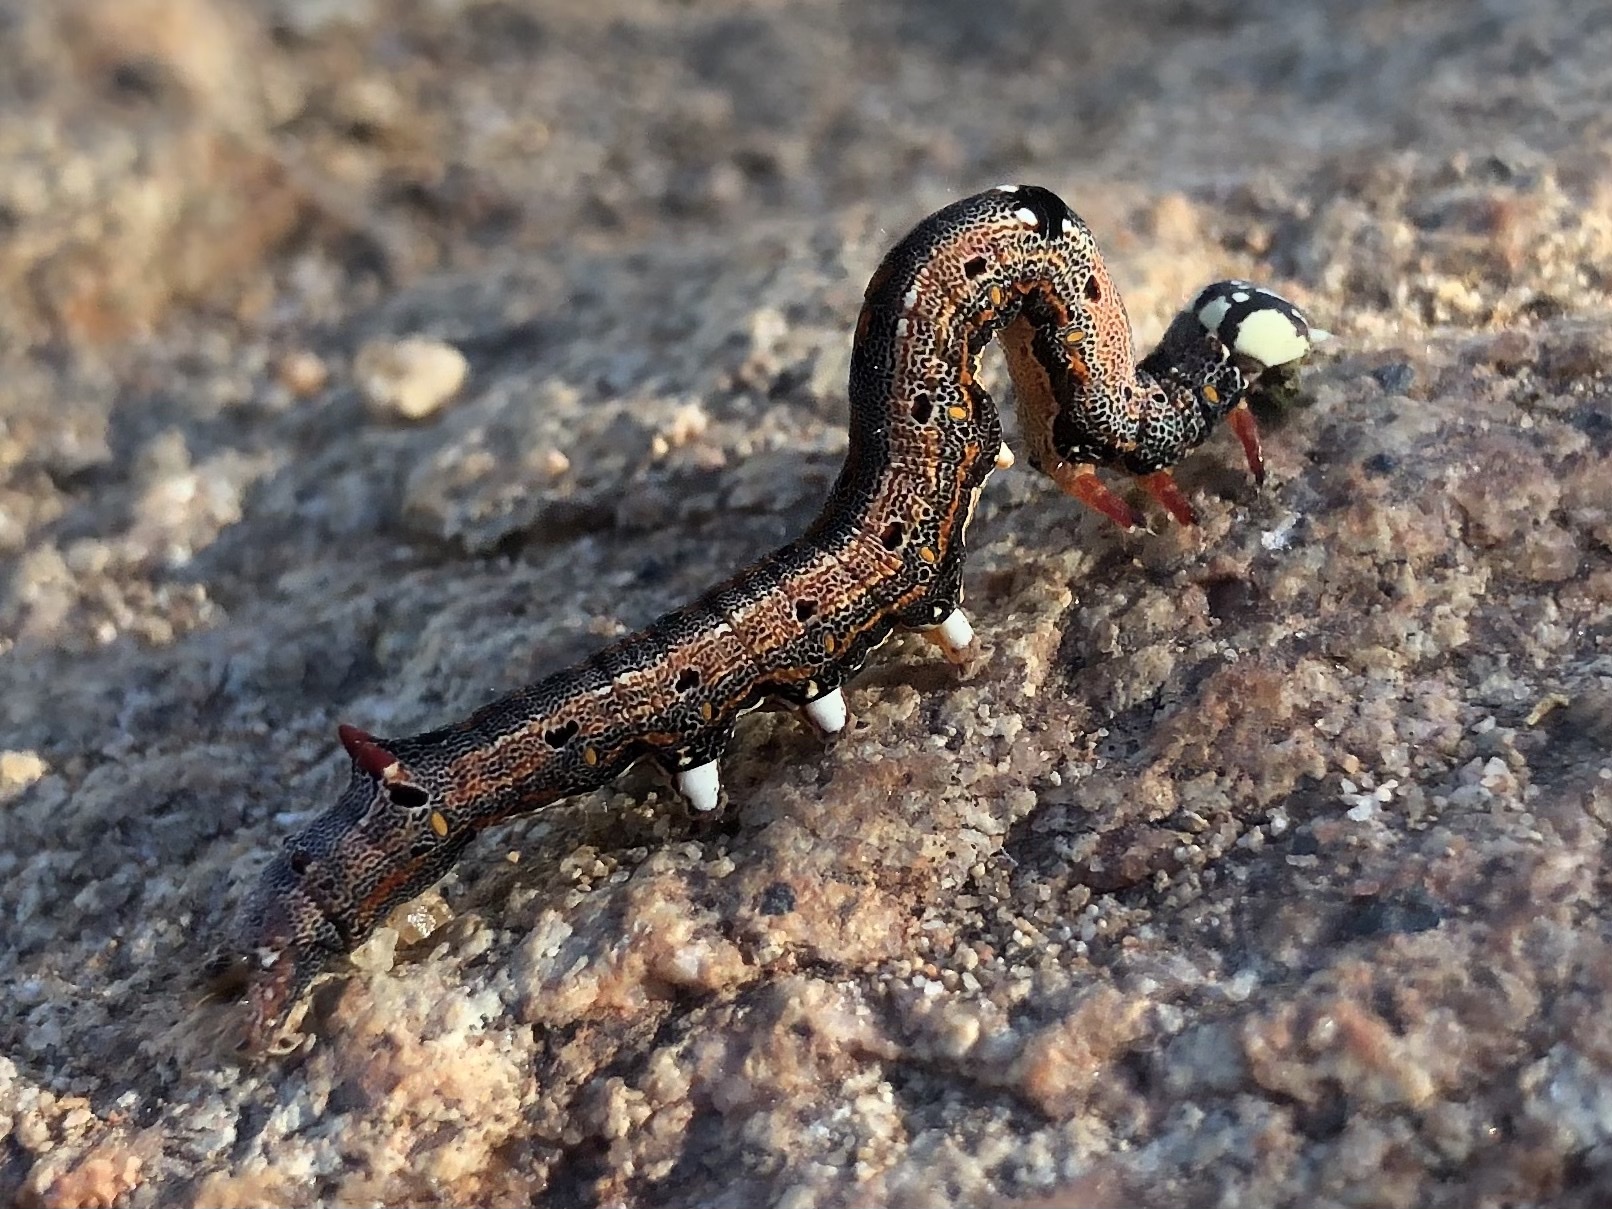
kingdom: Animalia
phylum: Arthropoda
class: Insecta
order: Lepidoptera
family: Erebidae
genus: Achaea
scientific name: Achaea janata
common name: Croton caterpillar
